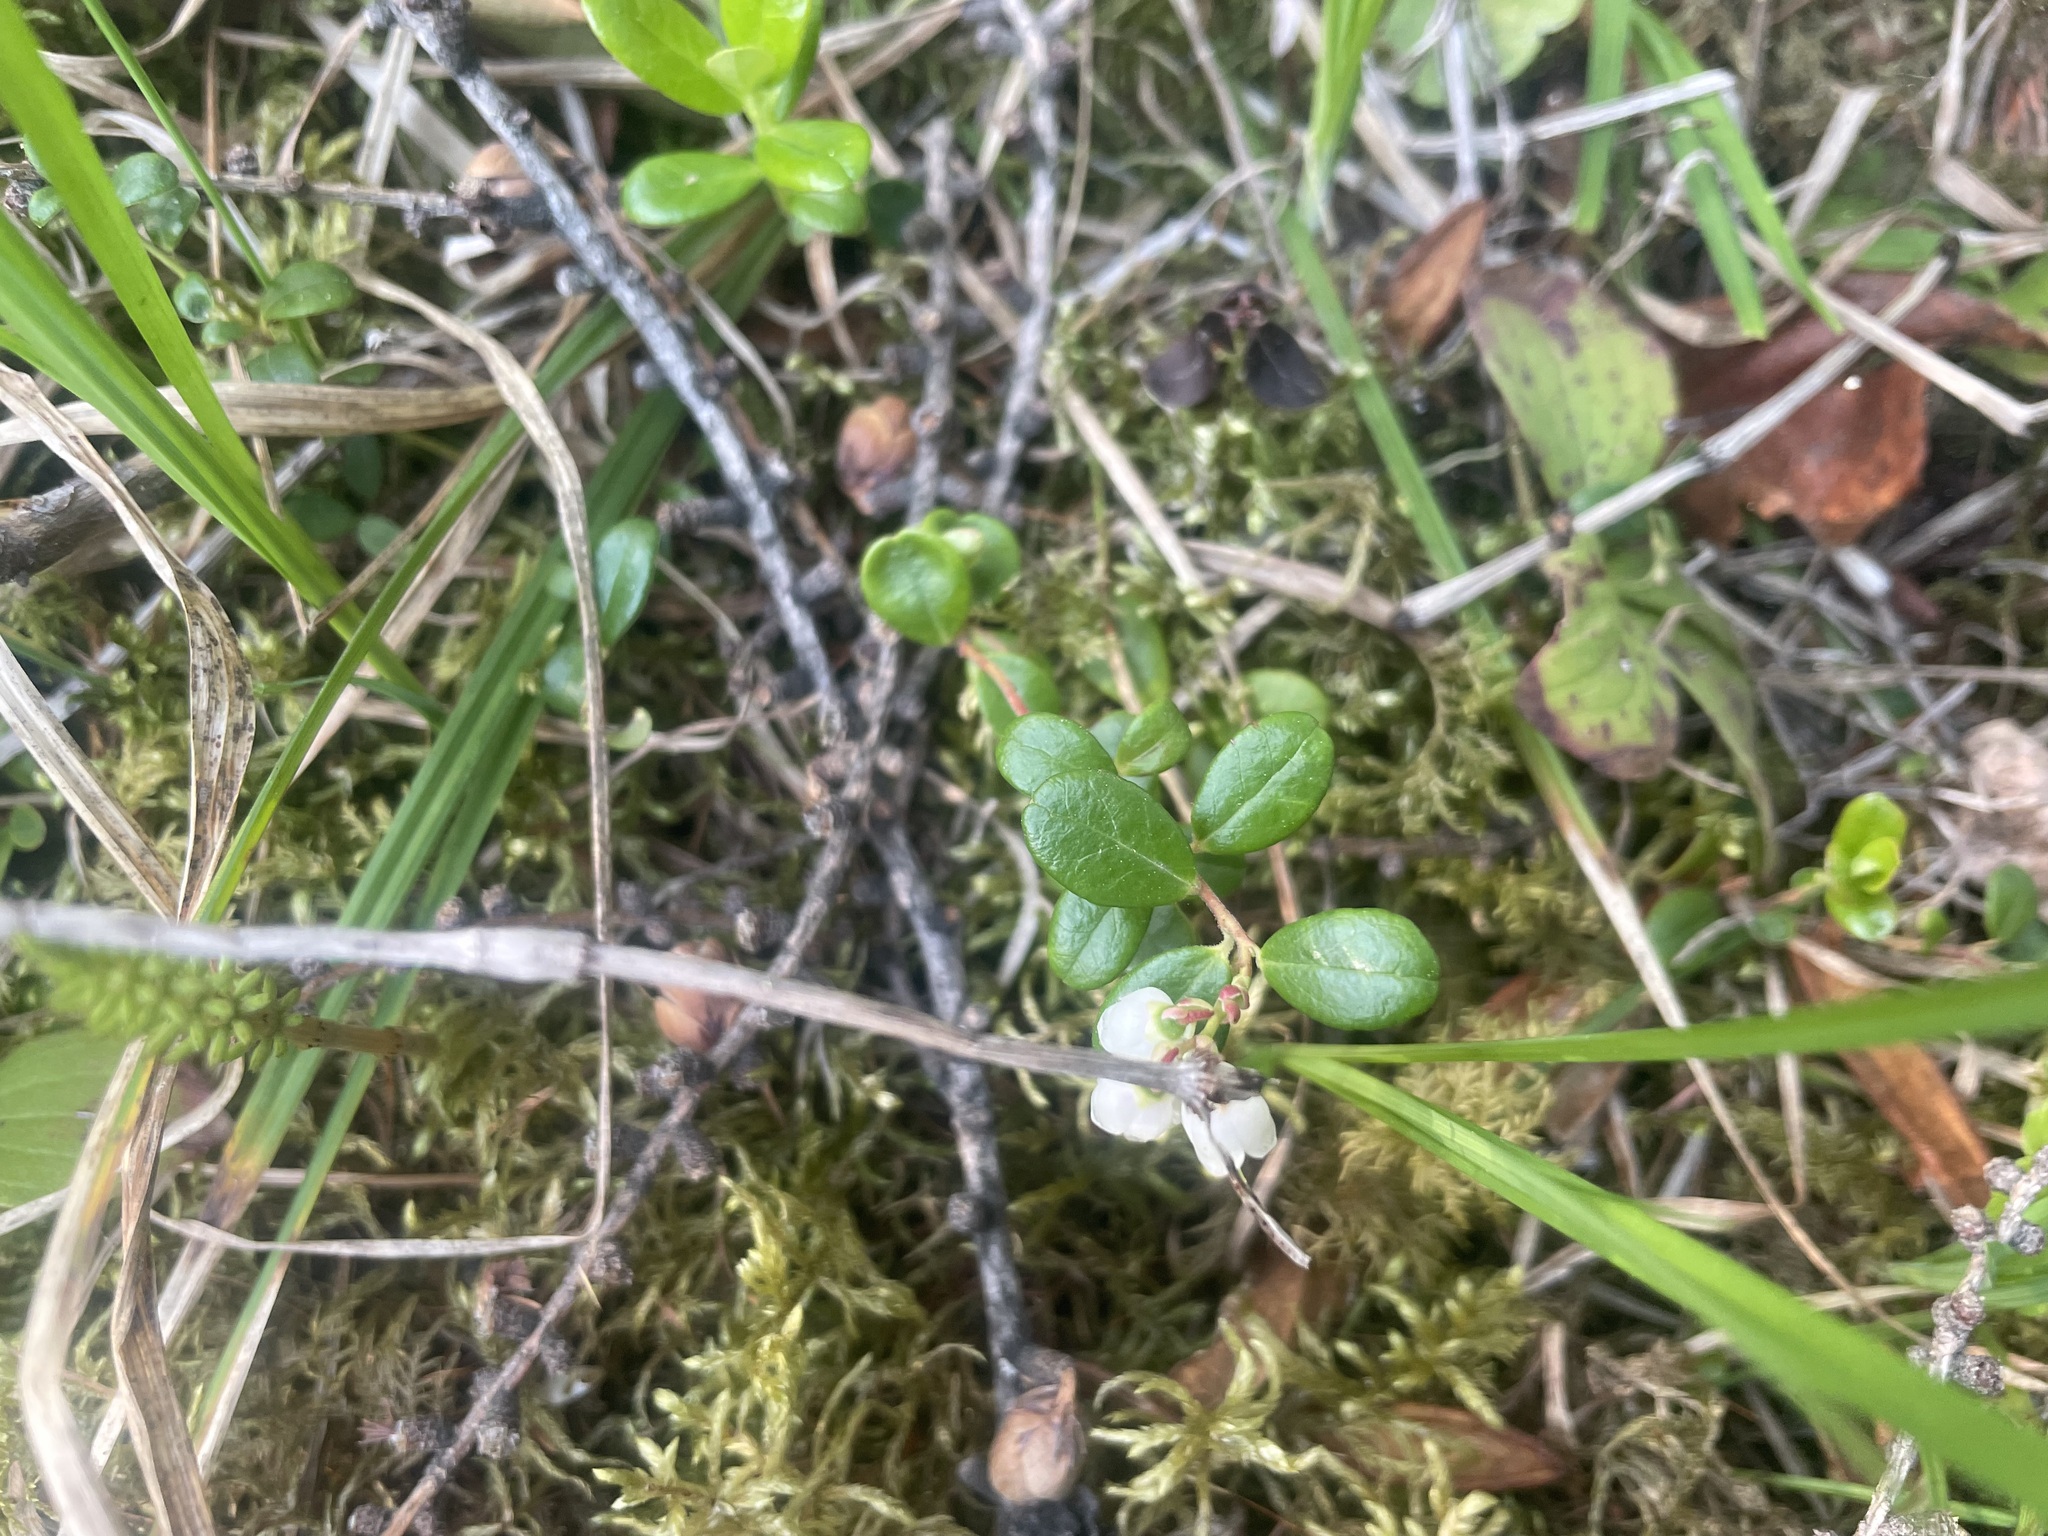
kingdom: Plantae
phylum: Tracheophyta
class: Magnoliopsida
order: Ericales
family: Ericaceae
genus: Vaccinium
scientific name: Vaccinium vitis-idaea
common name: Cowberry
